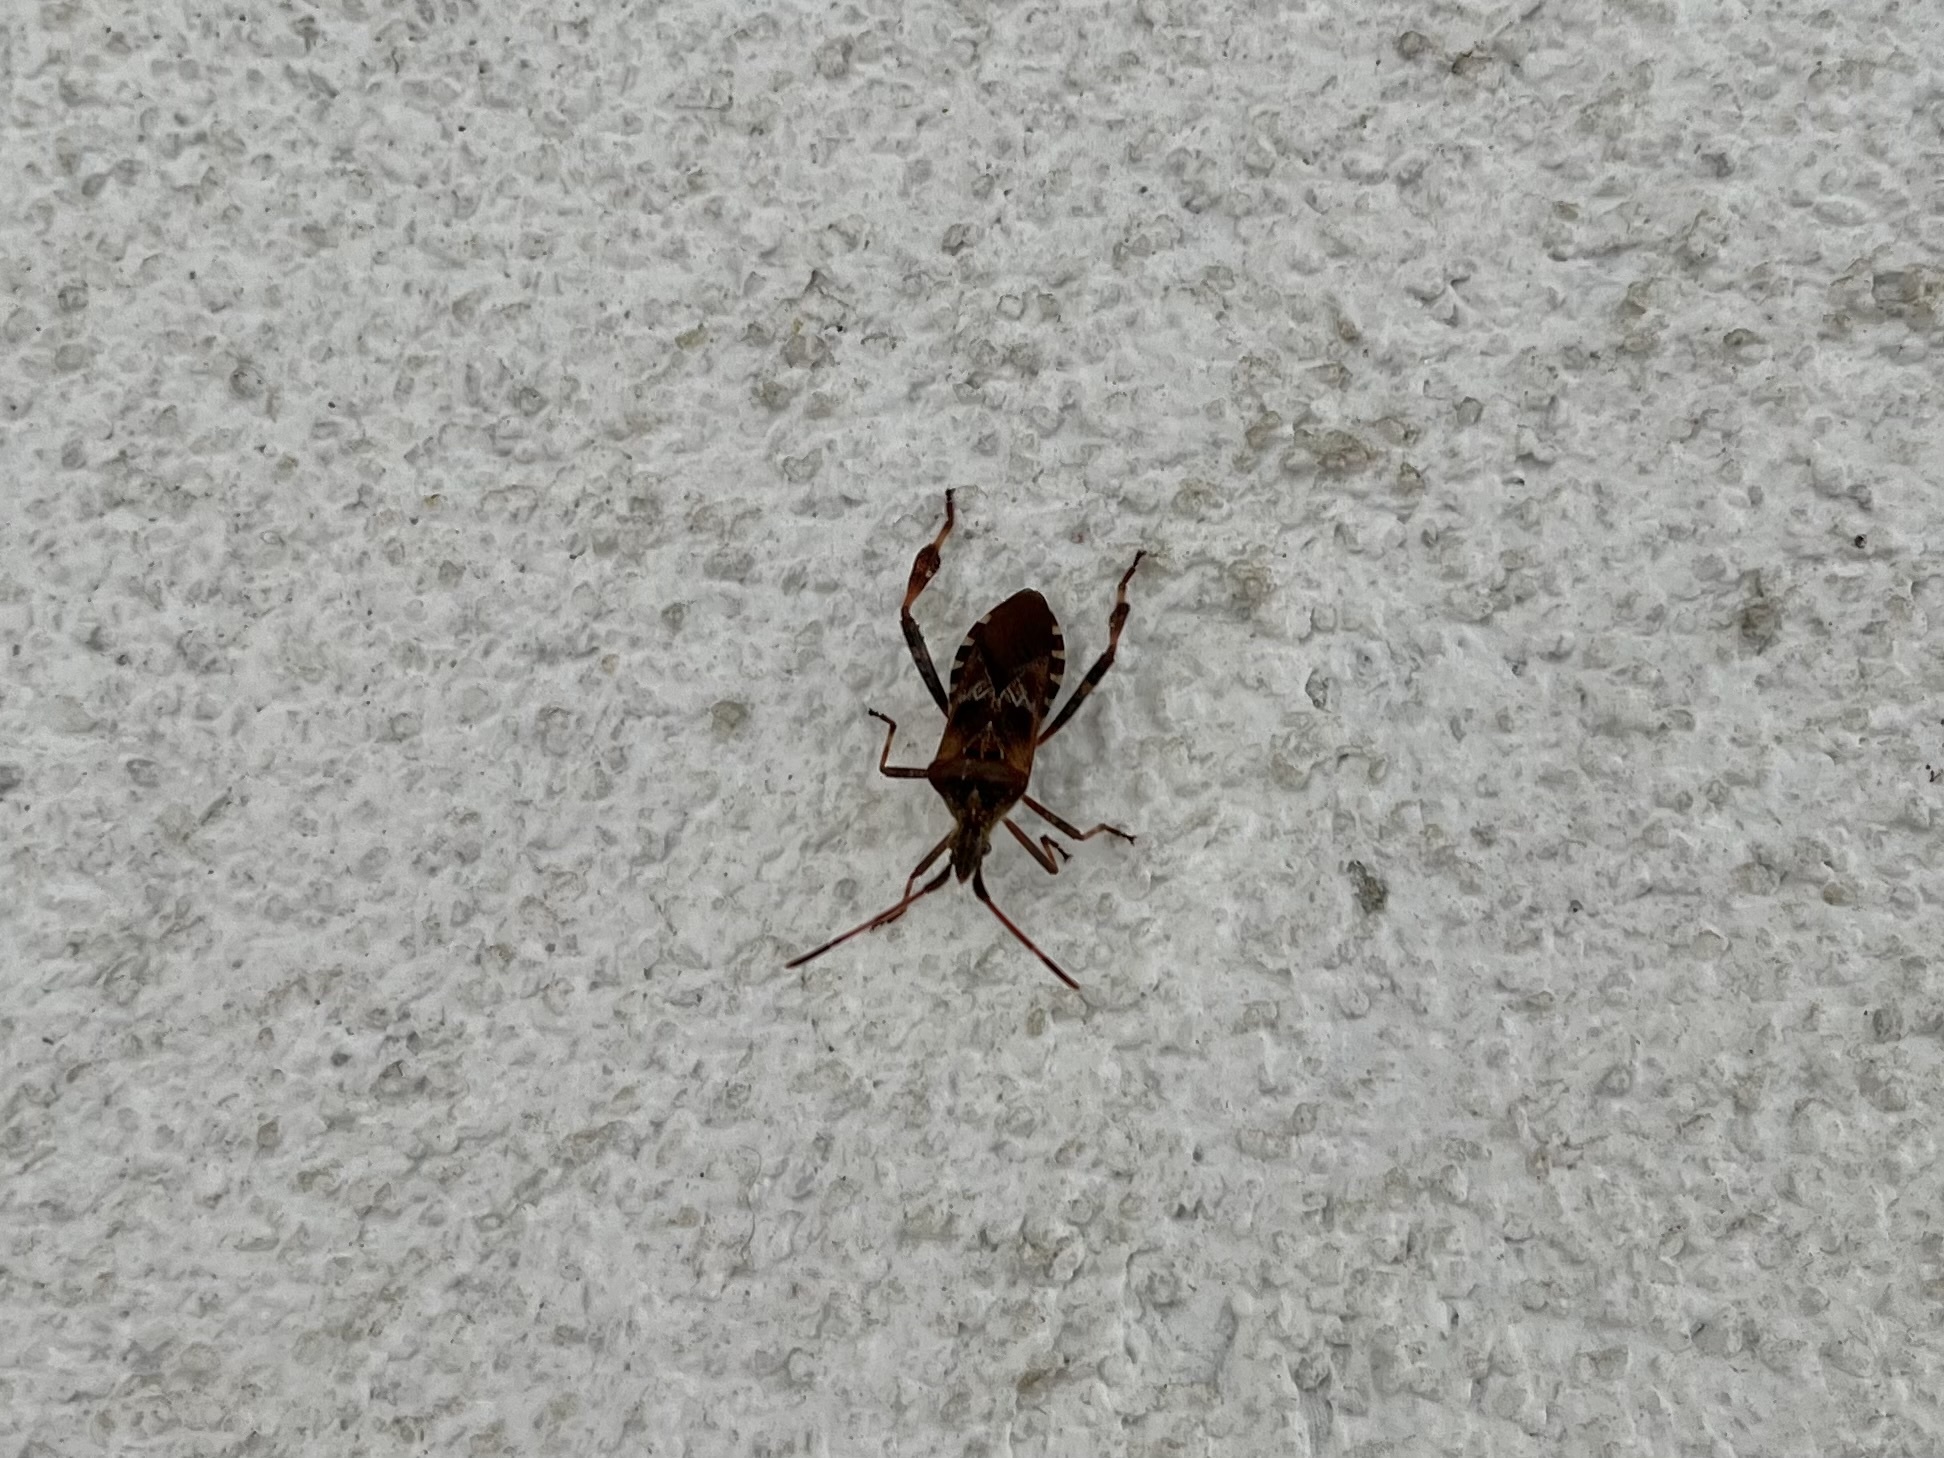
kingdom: Animalia
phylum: Arthropoda
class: Insecta
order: Hemiptera
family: Coreidae
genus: Leptoglossus
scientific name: Leptoglossus occidentalis
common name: Western conifer-seed bug
